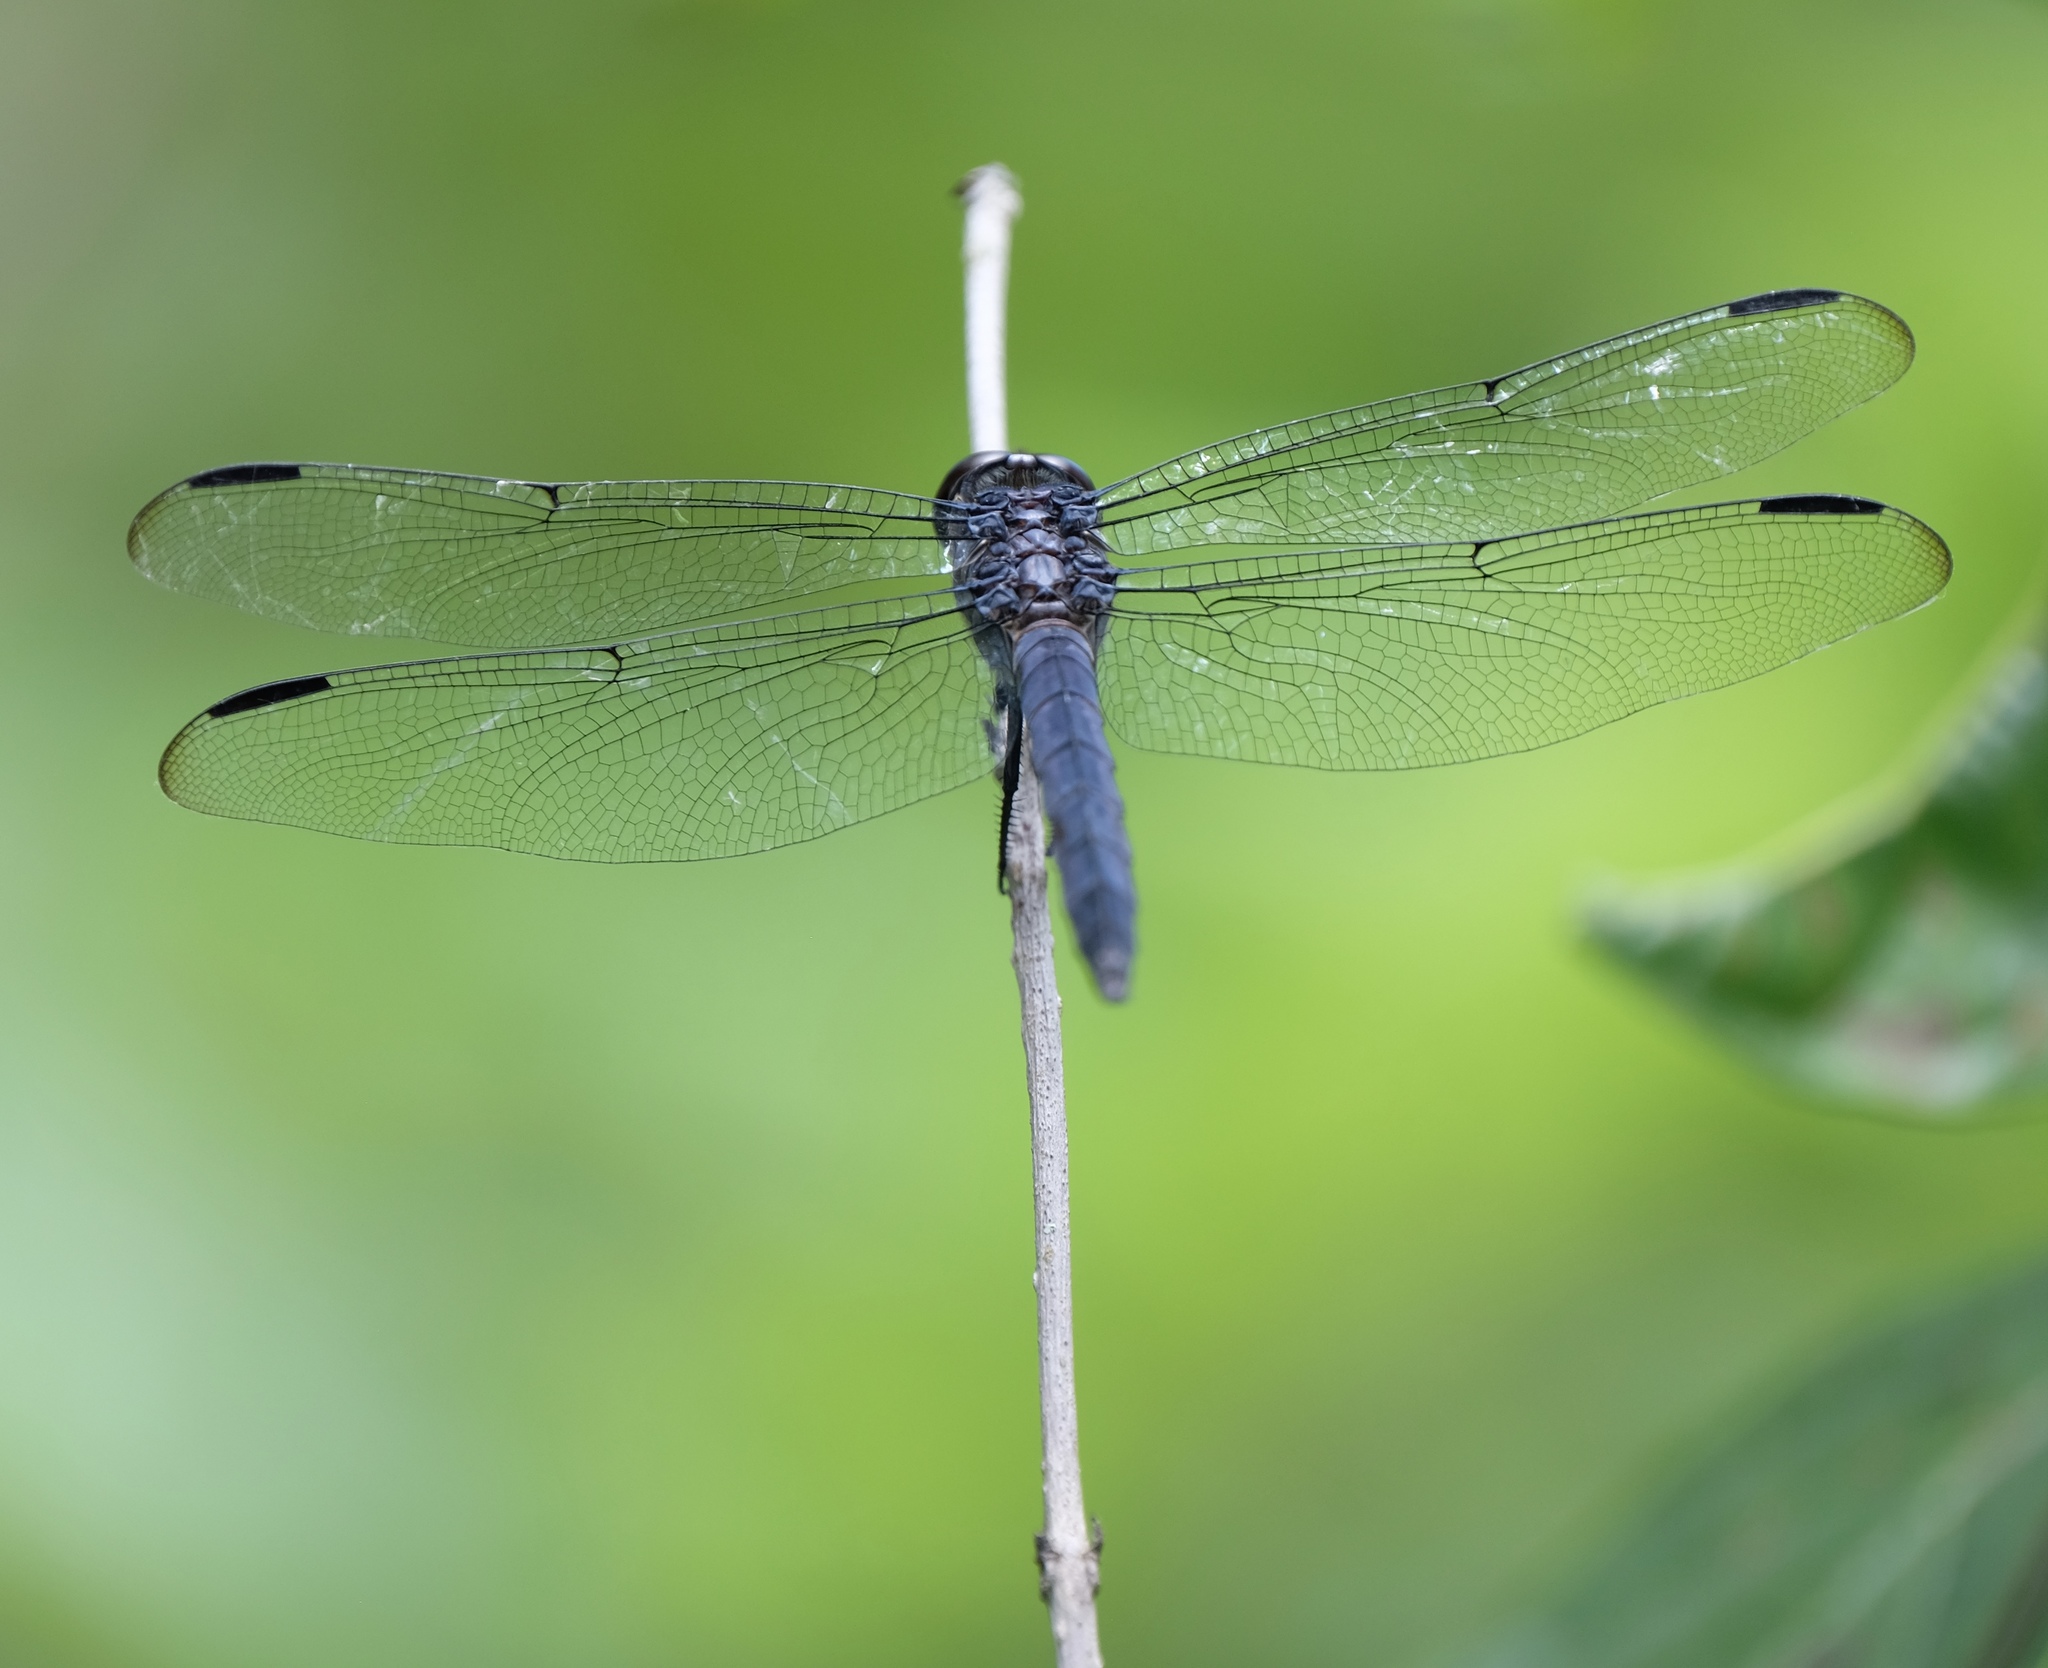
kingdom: Animalia
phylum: Arthropoda
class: Insecta
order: Odonata
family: Libellulidae
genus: Libellula
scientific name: Libellula incesta
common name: Slaty skimmer
